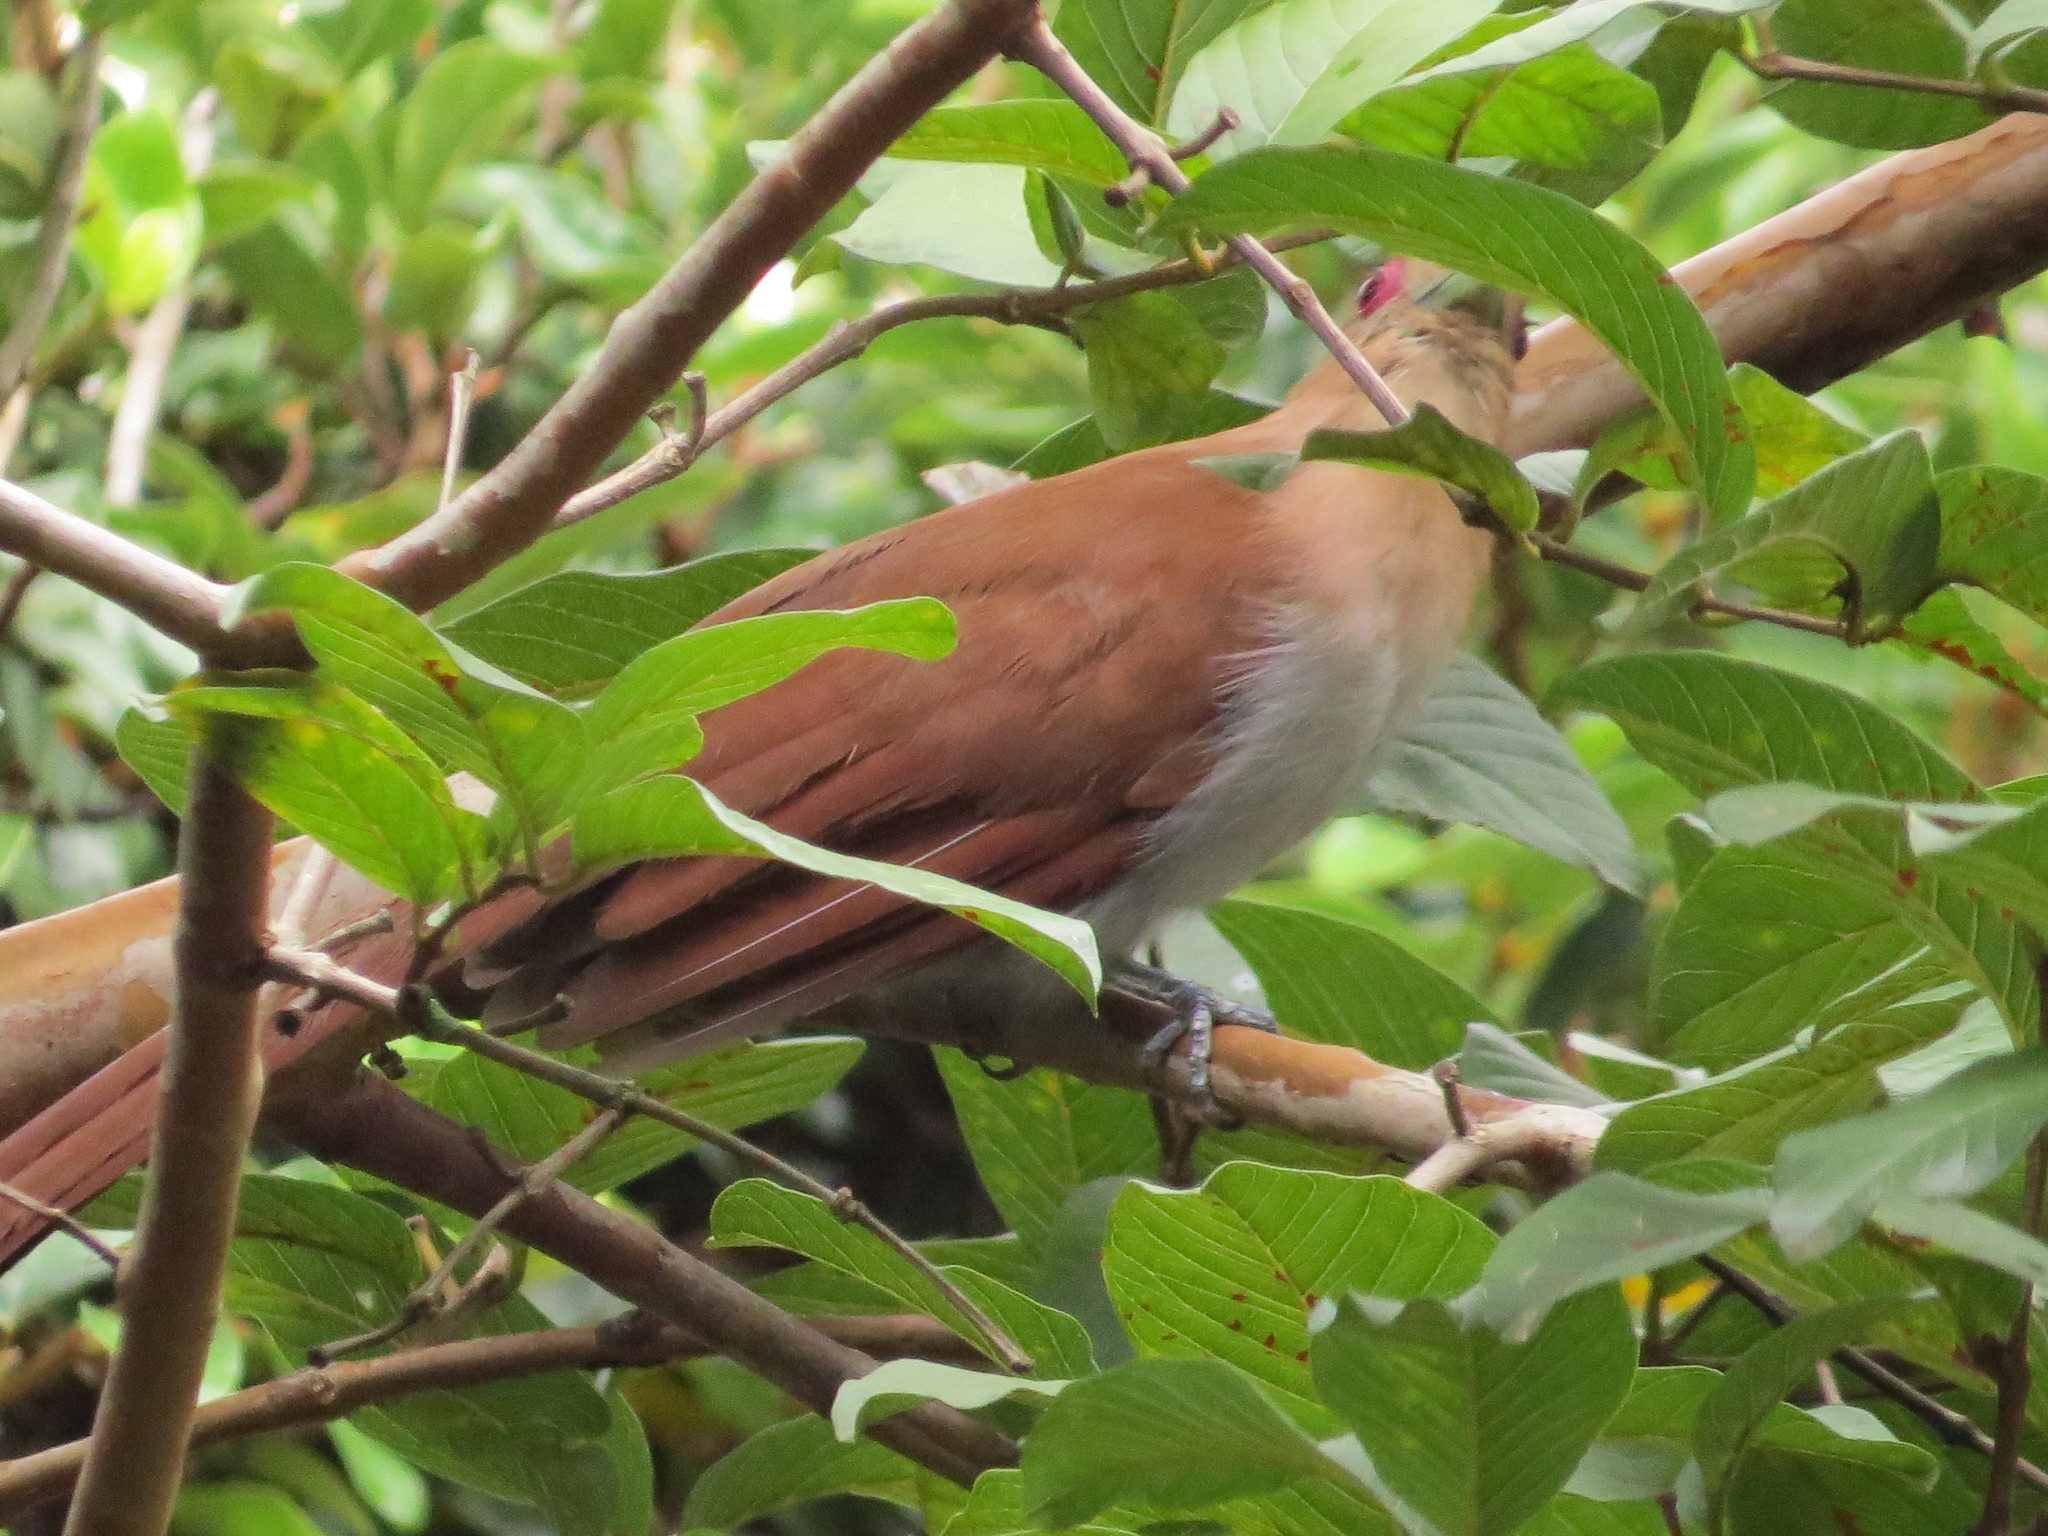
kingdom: Animalia
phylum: Chordata
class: Aves
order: Cuculiformes
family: Cuculidae
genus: Piaya
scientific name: Piaya cayana
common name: Squirrel cuckoo
